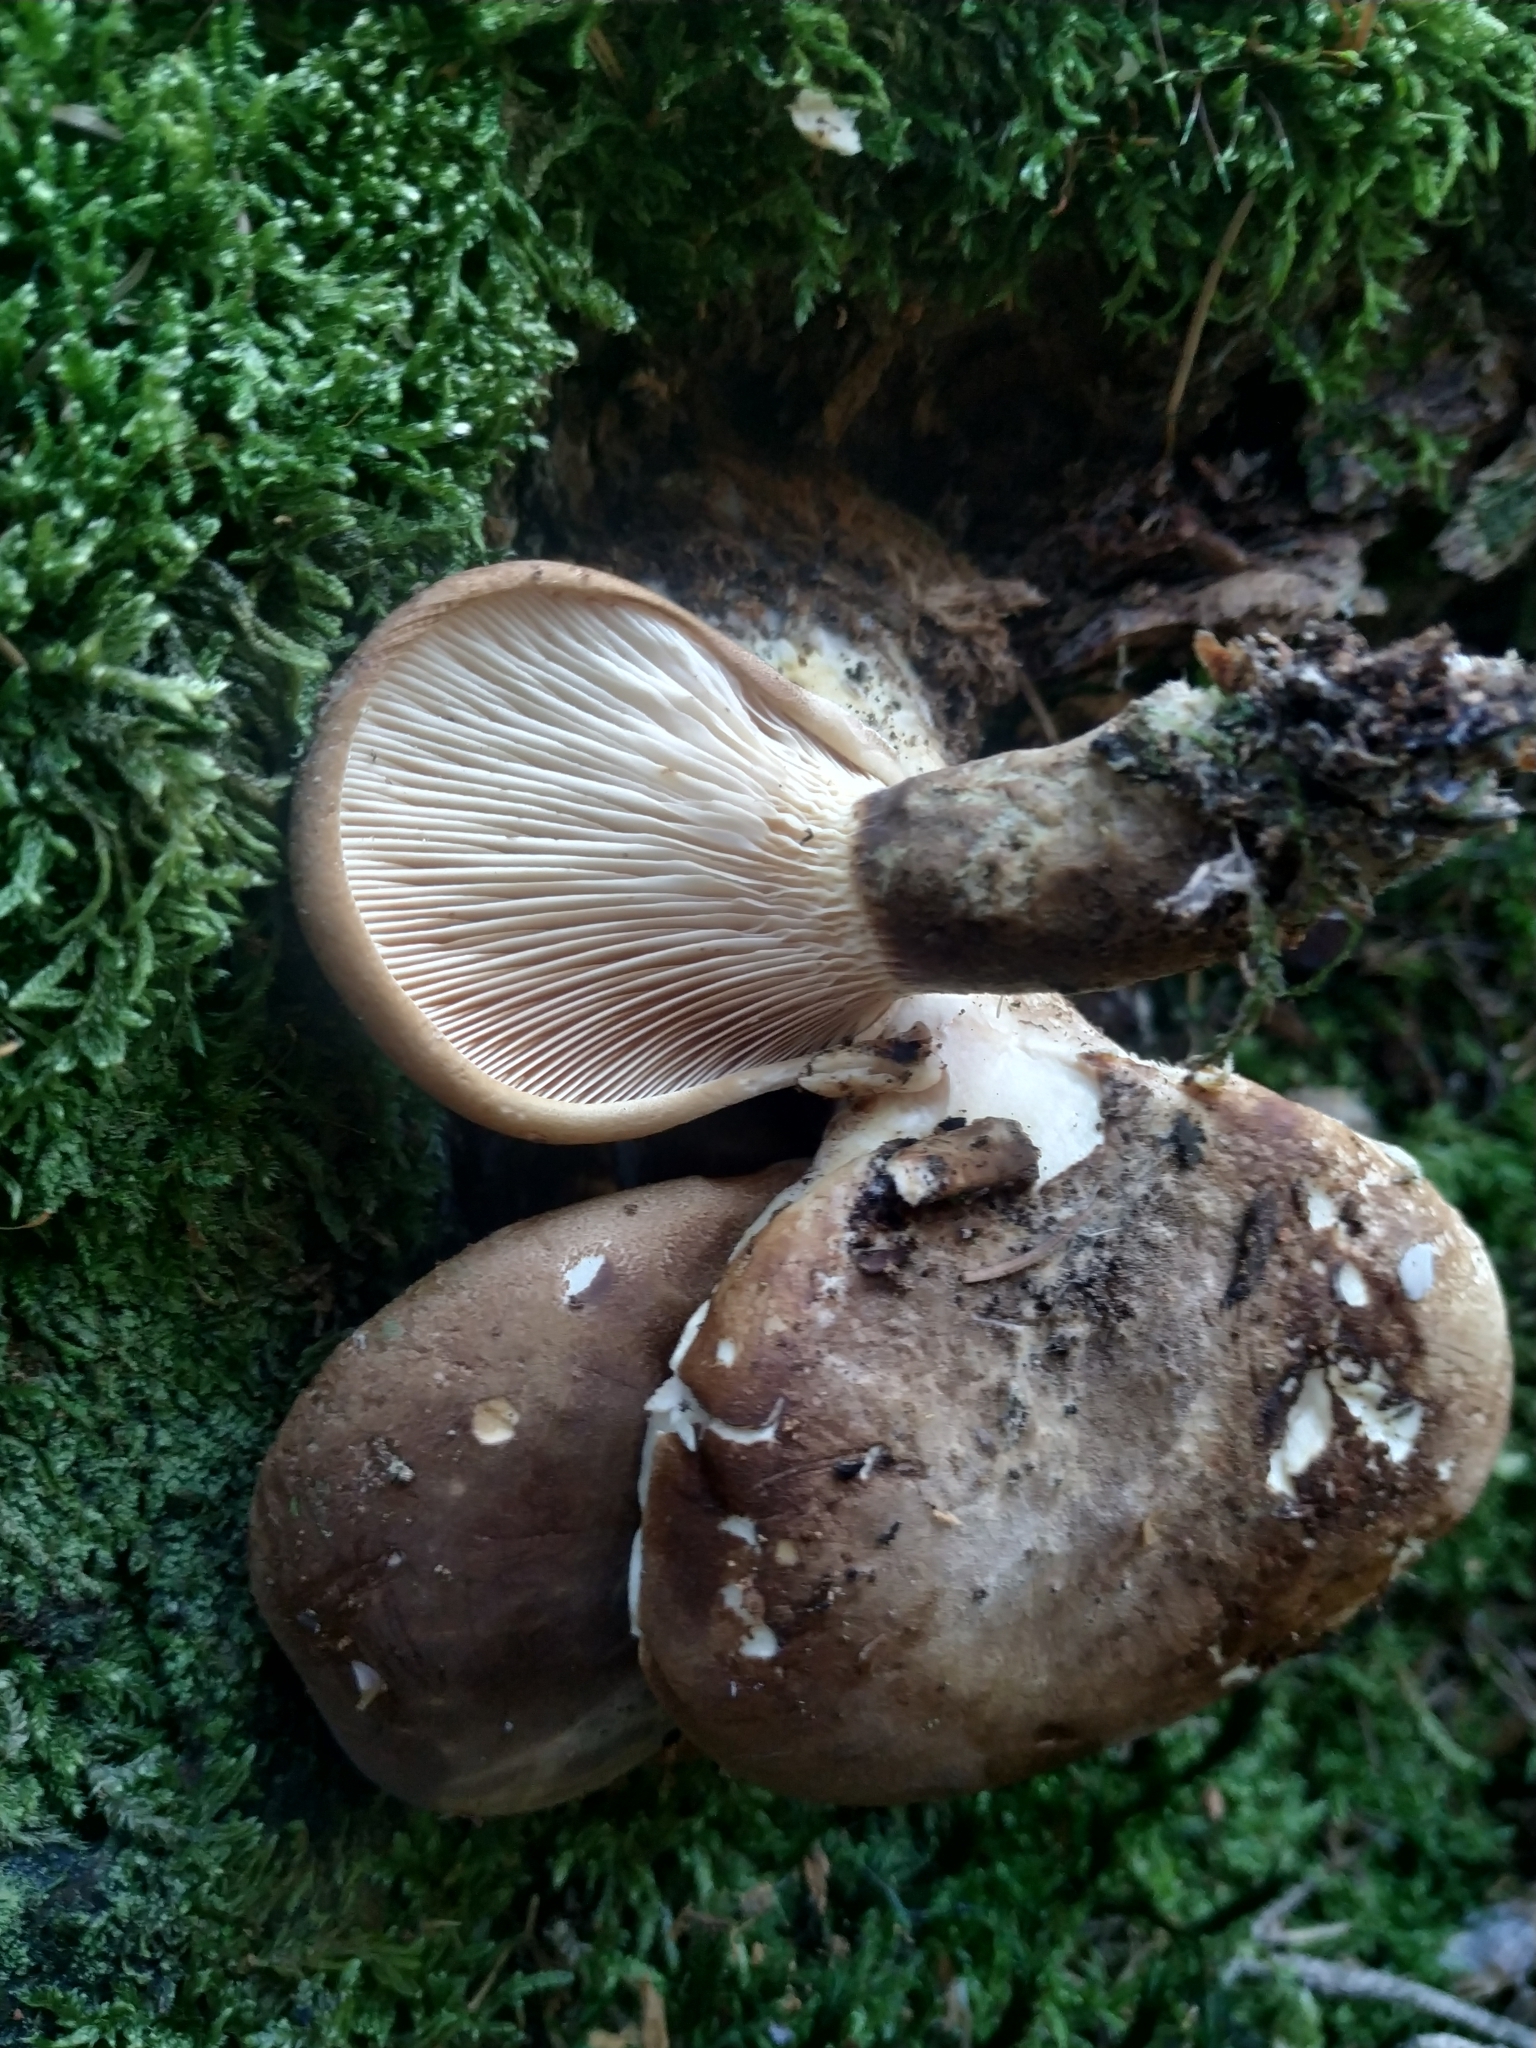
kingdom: Fungi
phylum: Basidiomycota
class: Agaricomycetes
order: Boletales
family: Tapinellaceae
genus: Tapinella
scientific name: Tapinella atrotomentosa
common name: Velvet rollrim
